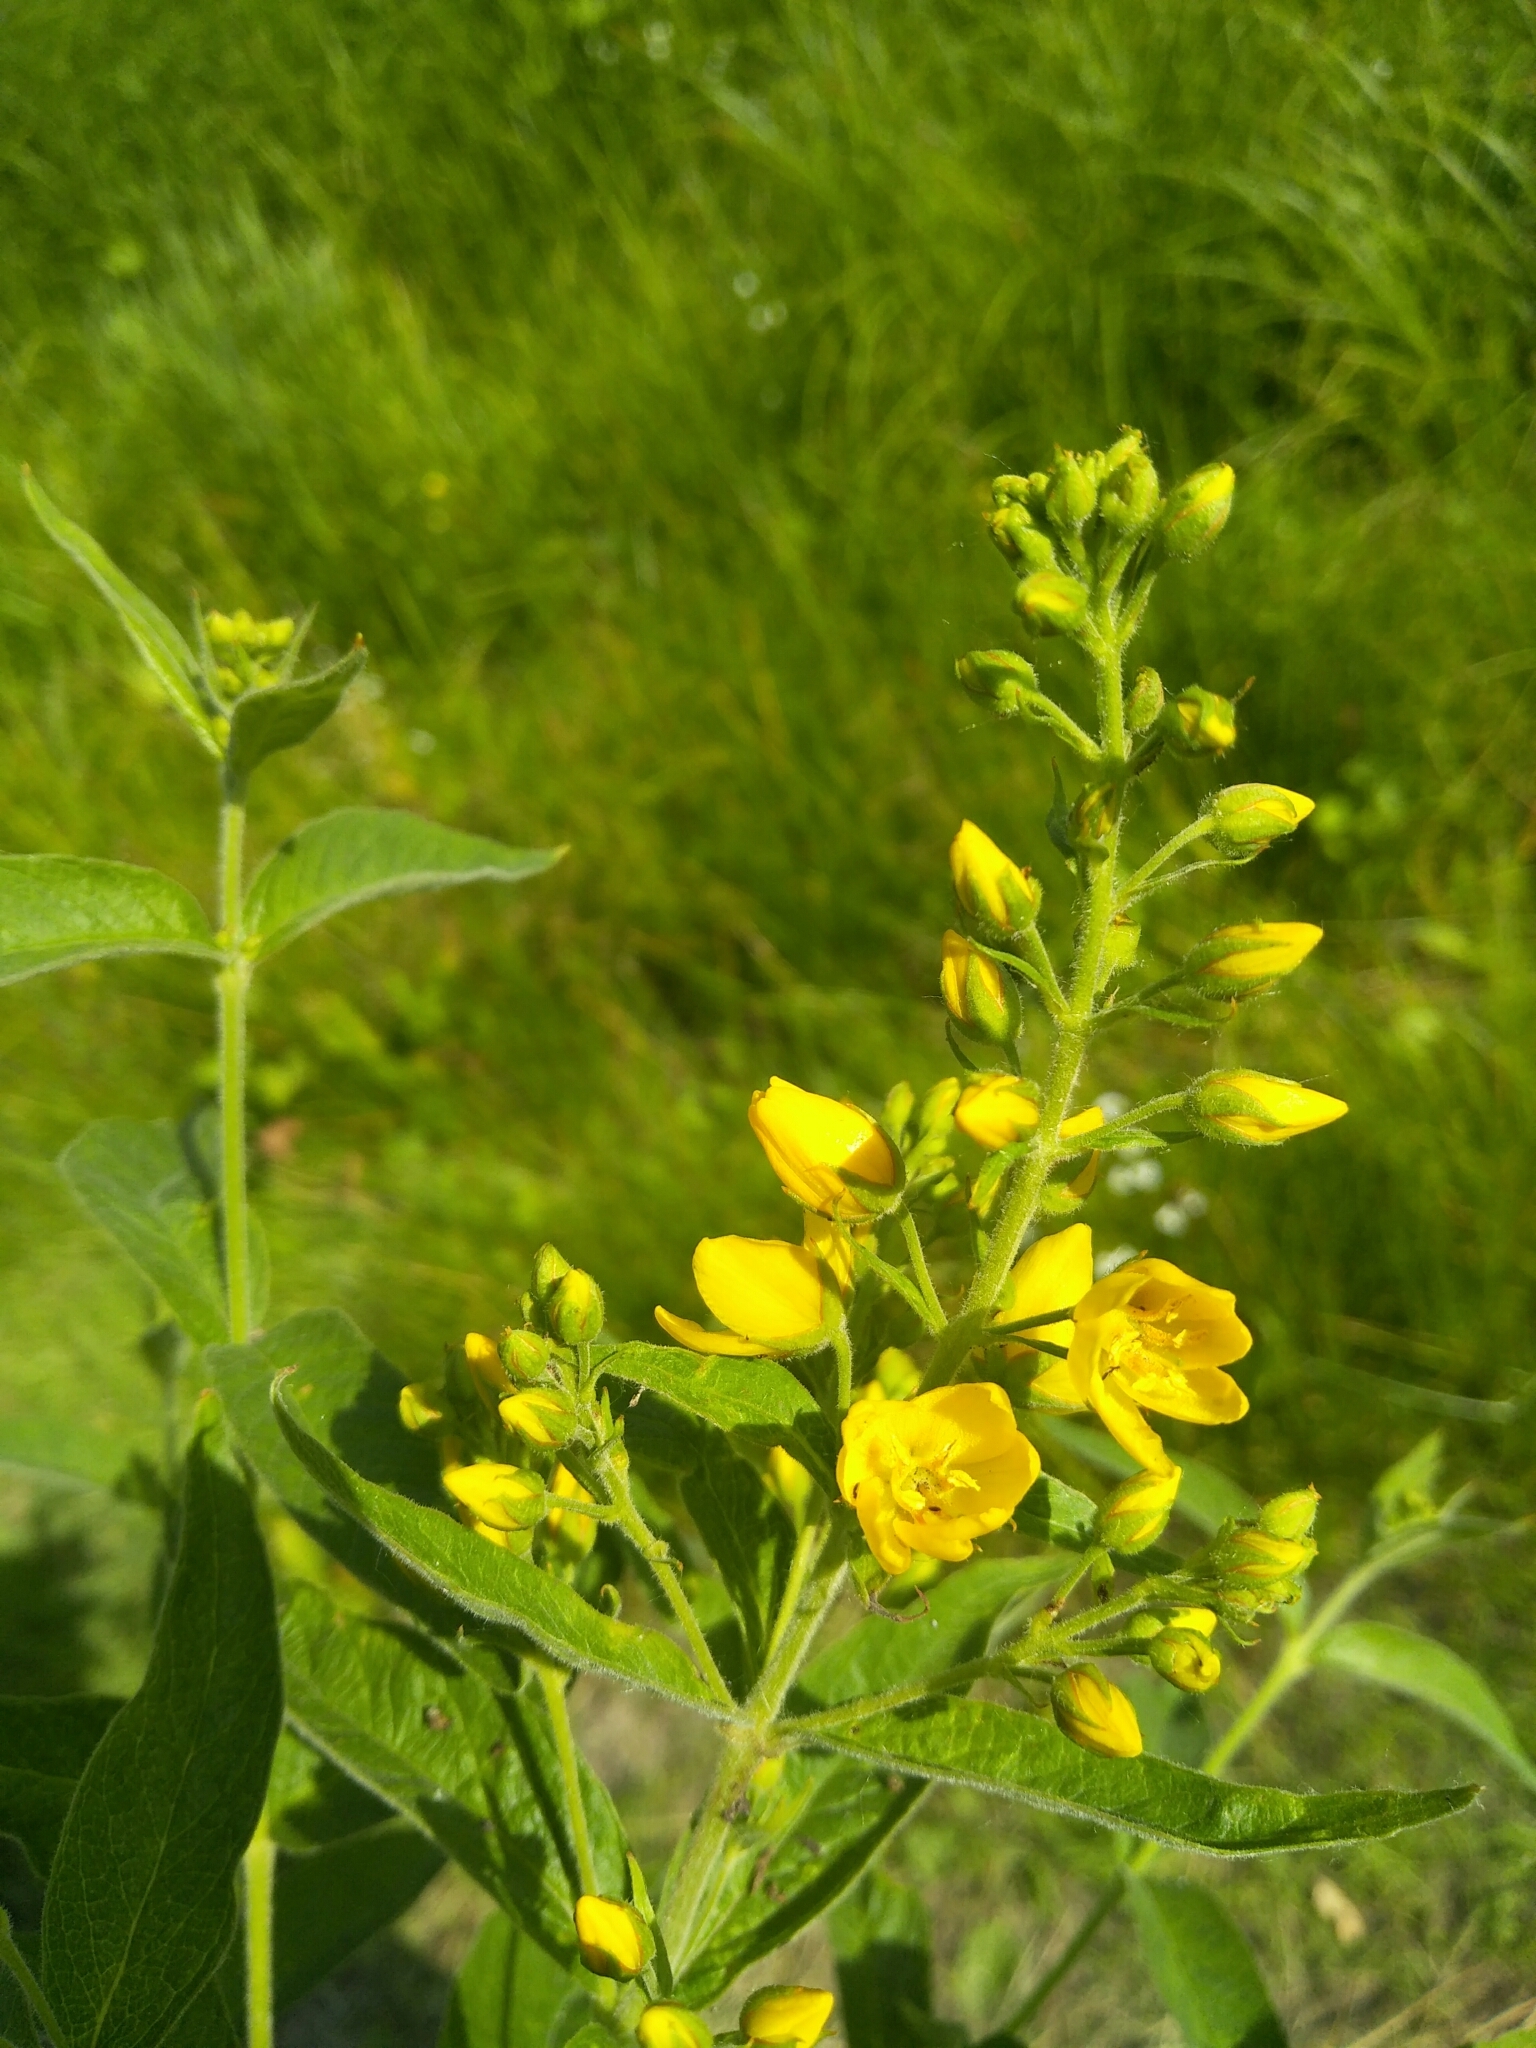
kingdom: Plantae
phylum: Tracheophyta
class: Magnoliopsida
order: Ericales
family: Primulaceae
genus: Lysimachia
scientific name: Lysimachia vulgaris
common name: Yellow loosestrife
